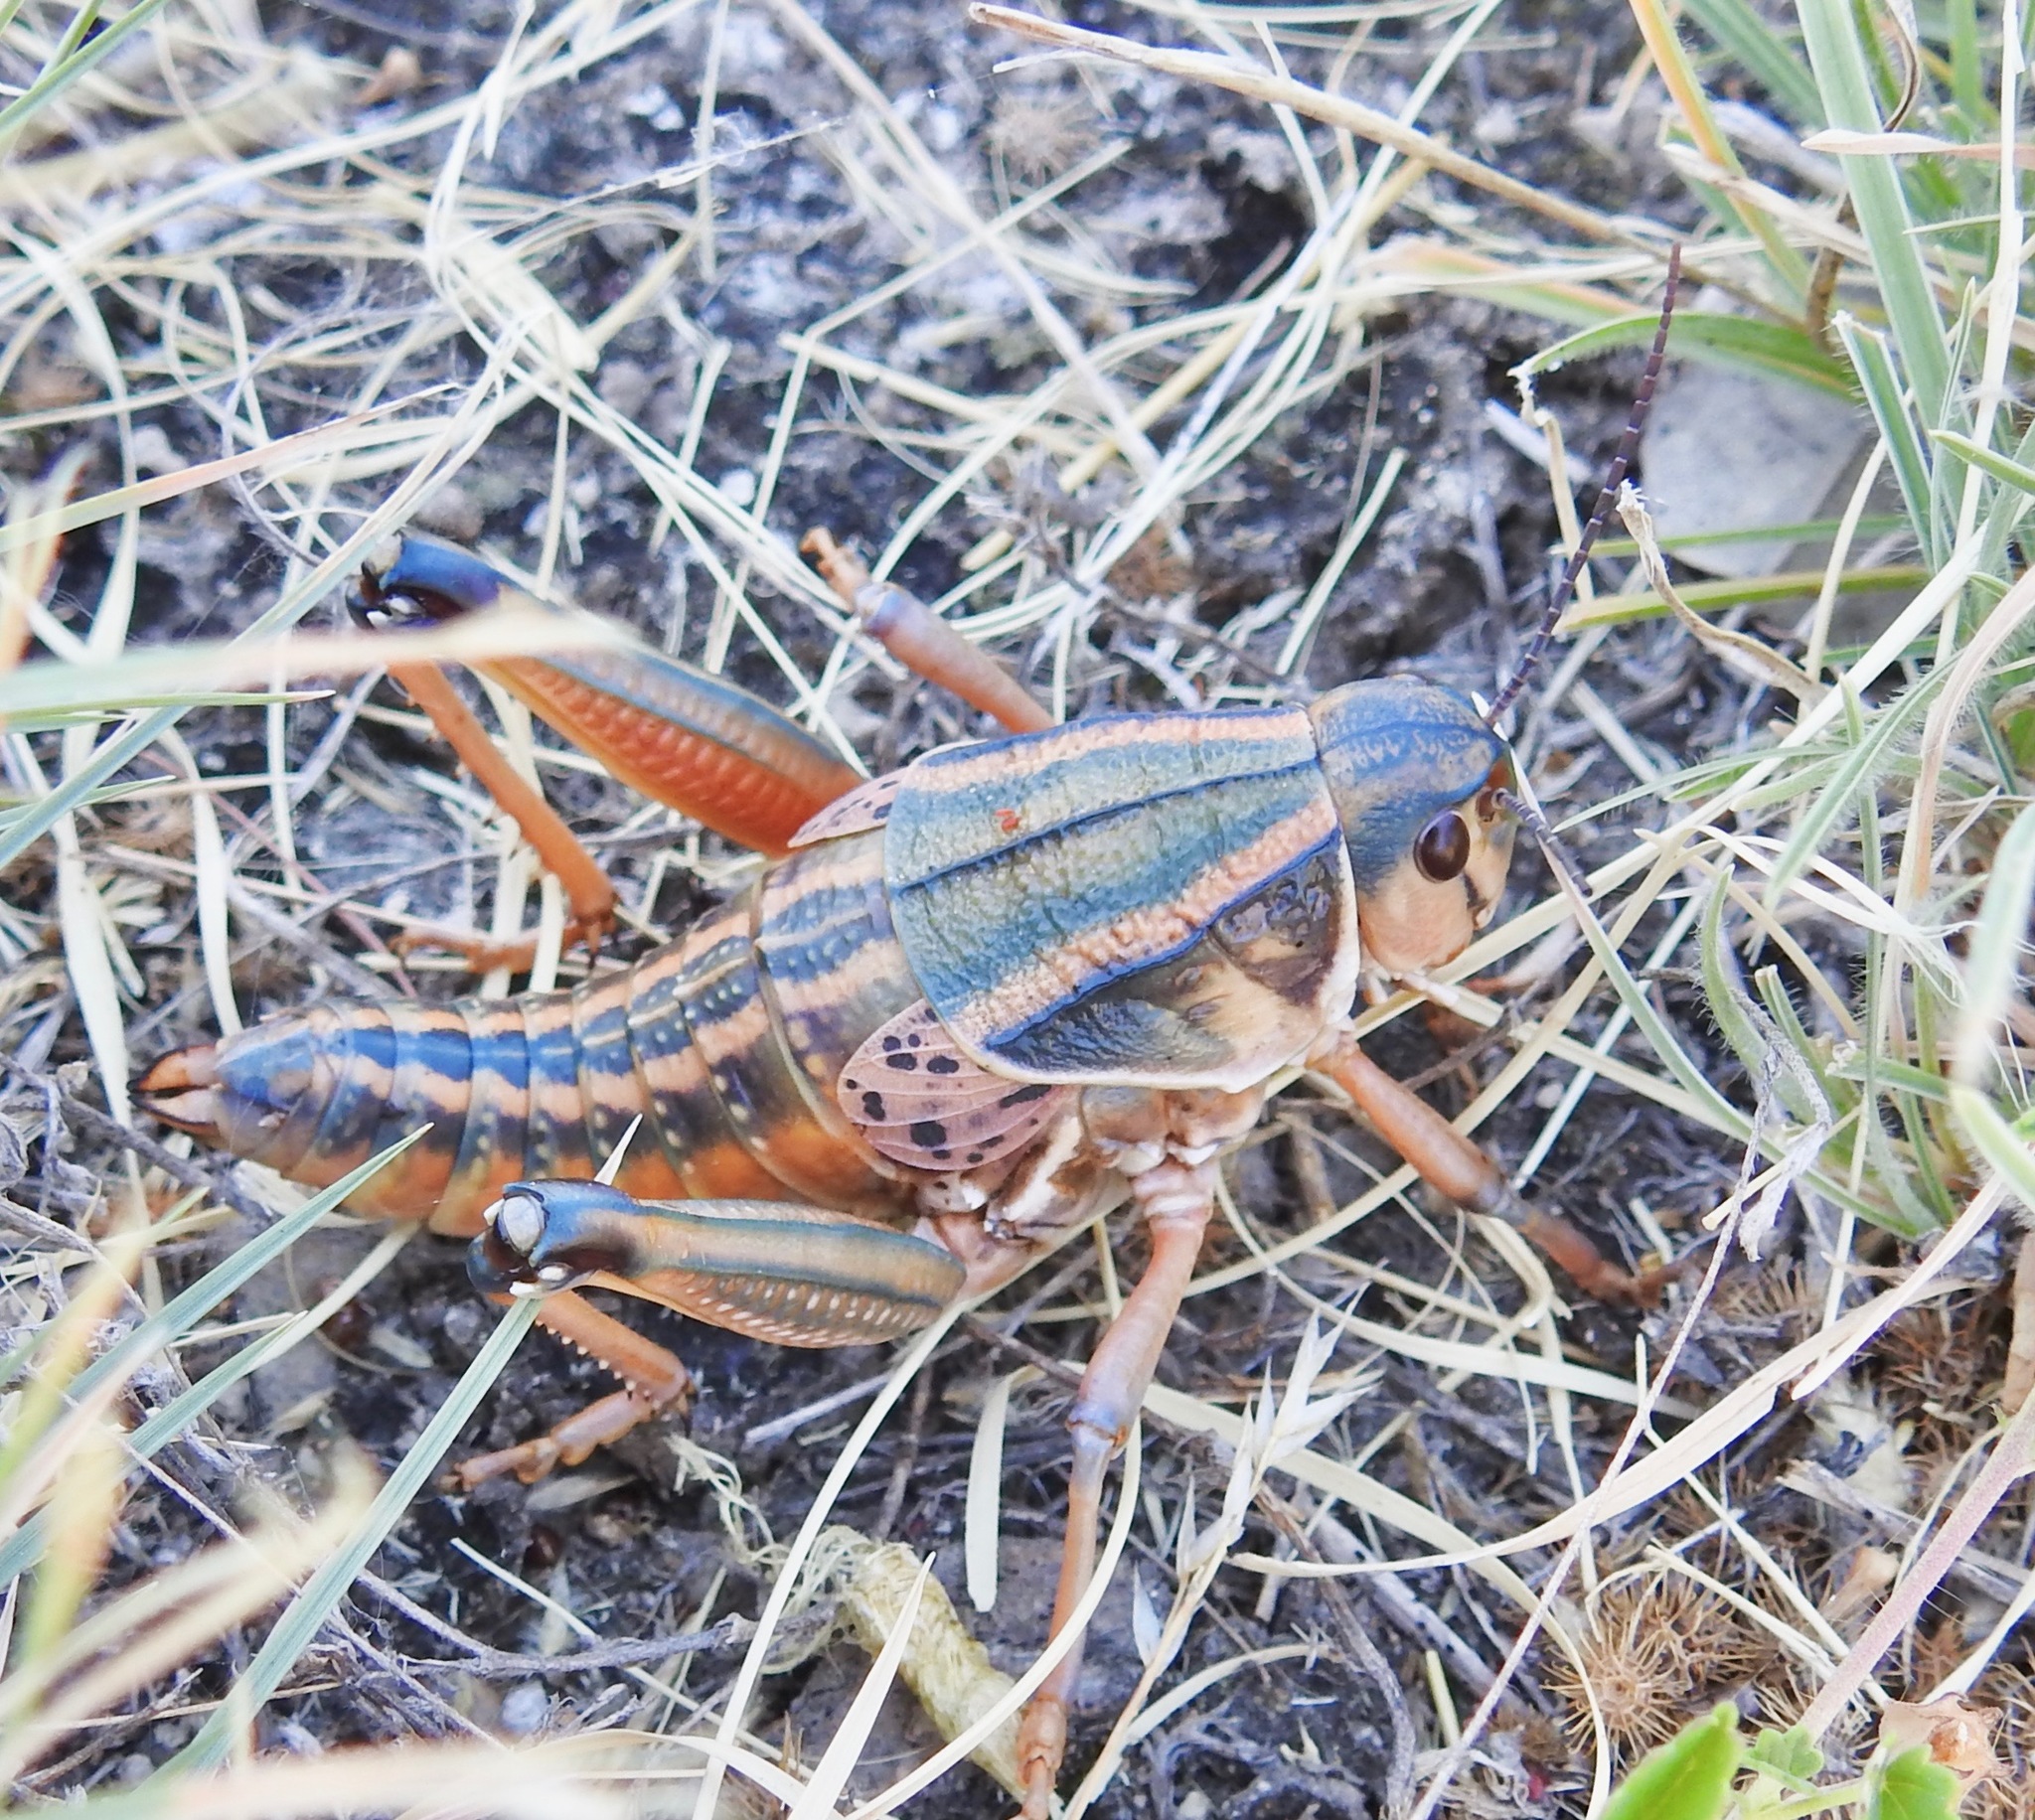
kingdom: Animalia
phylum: Arthropoda
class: Insecta
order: Orthoptera
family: Romaleidae
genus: Brachystola
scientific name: Brachystola magna
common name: Plains lubber grasshopper
